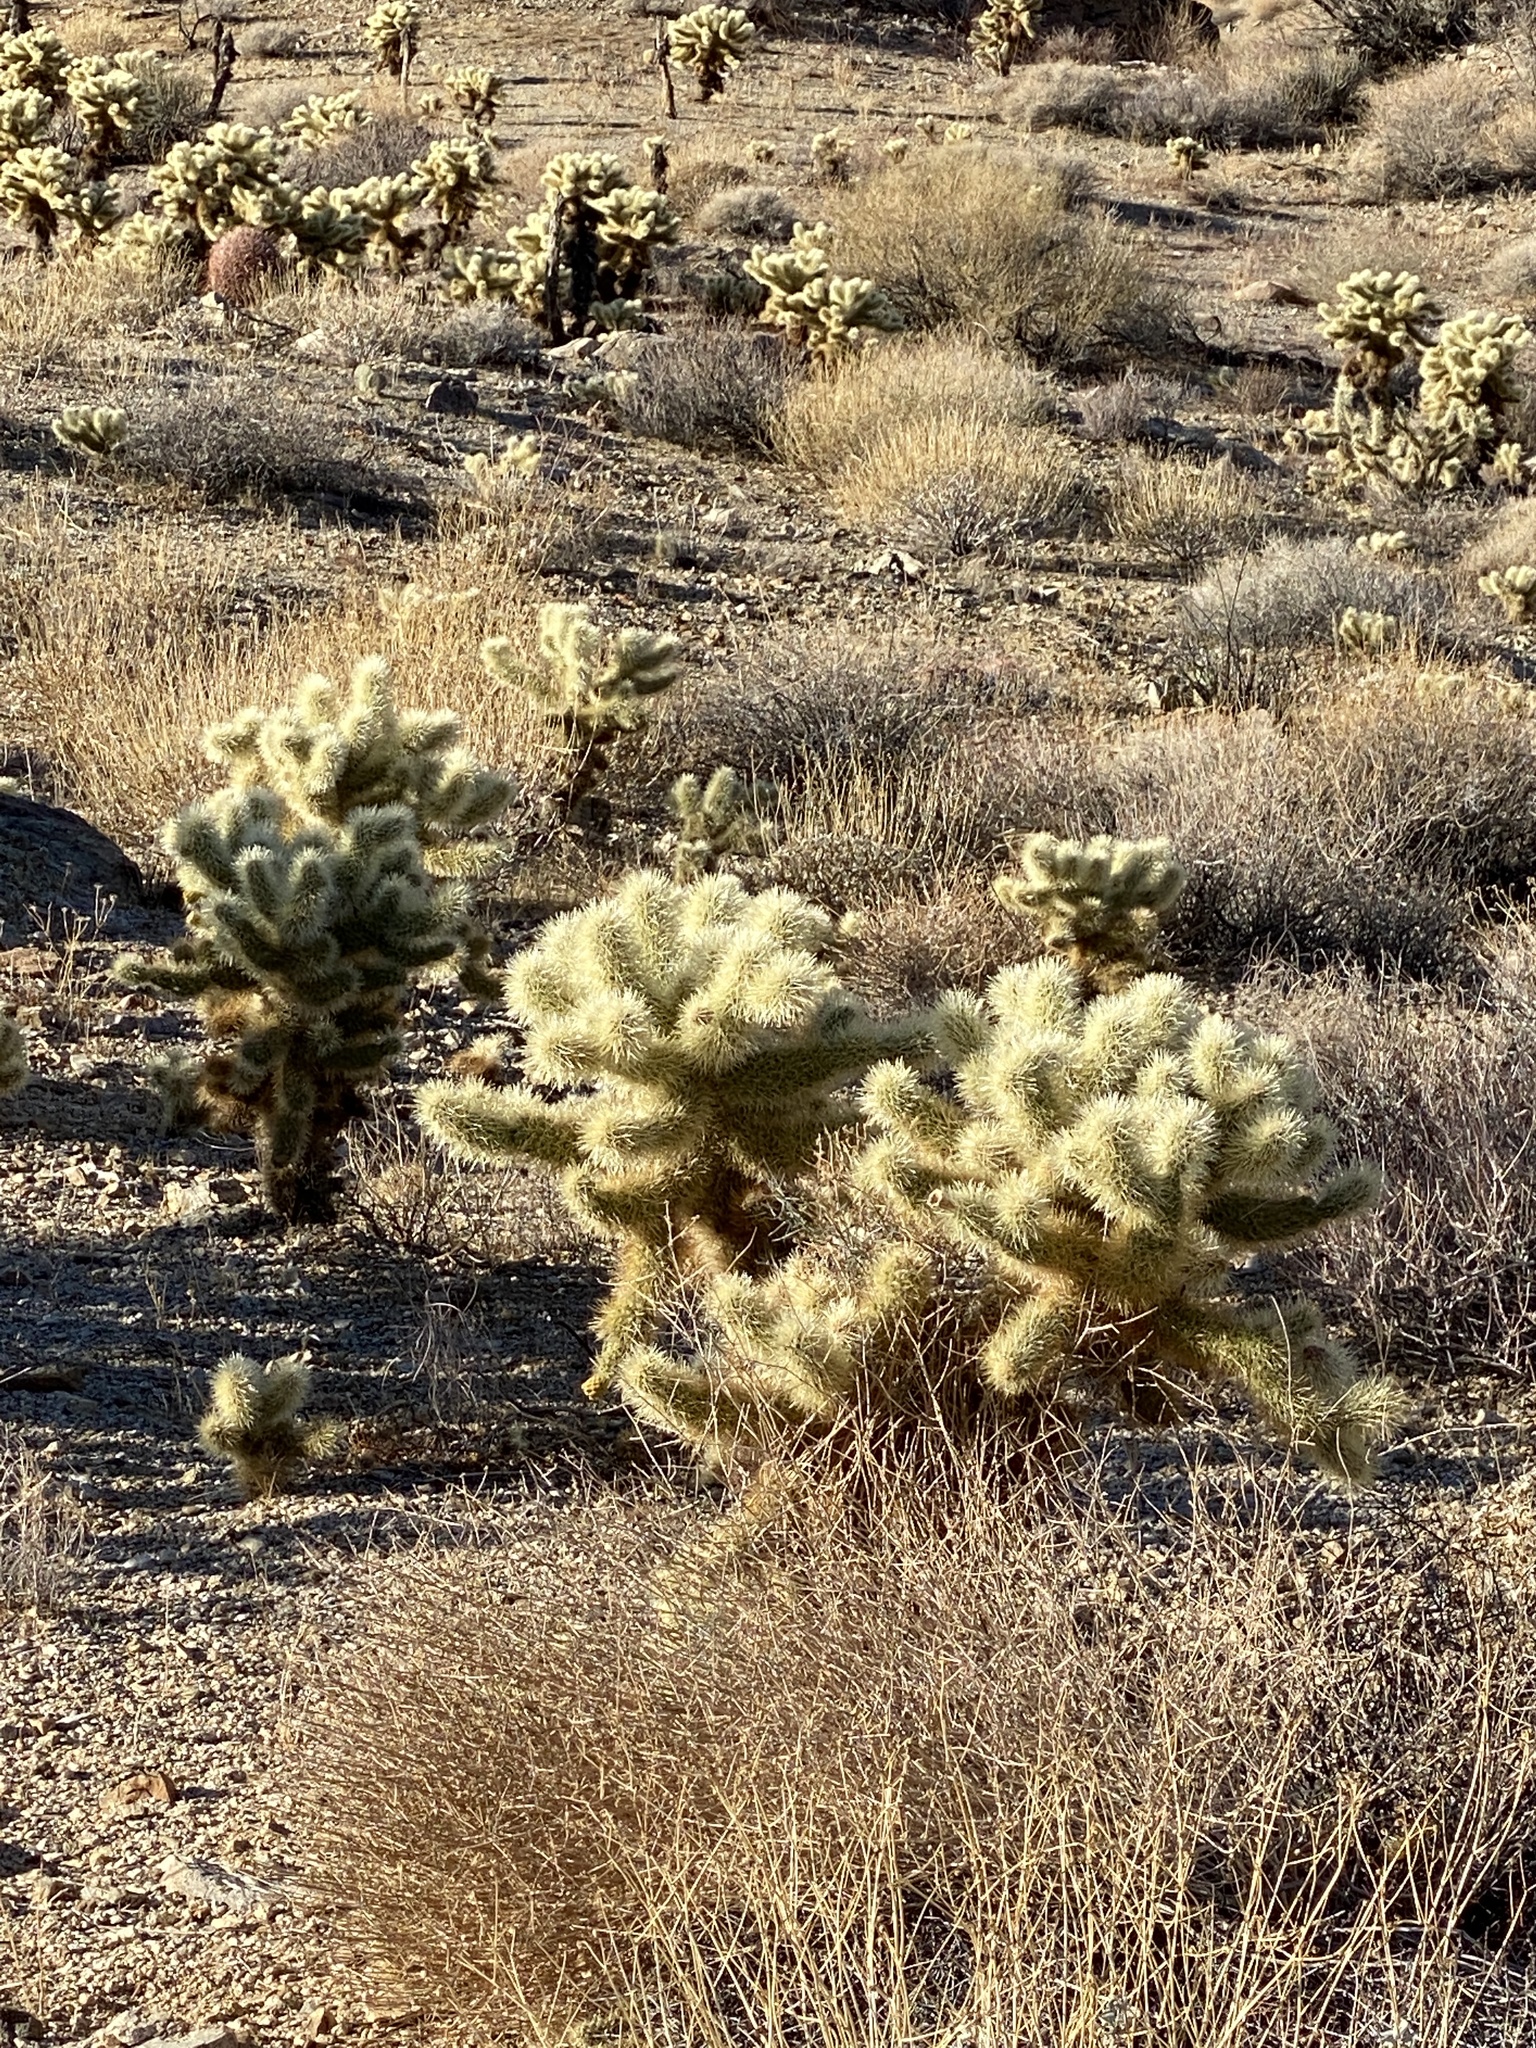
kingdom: Plantae
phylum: Tracheophyta
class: Magnoliopsida
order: Caryophyllales
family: Cactaceae
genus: Cylindropuntia
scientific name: Cylindropuntia fosbergii
